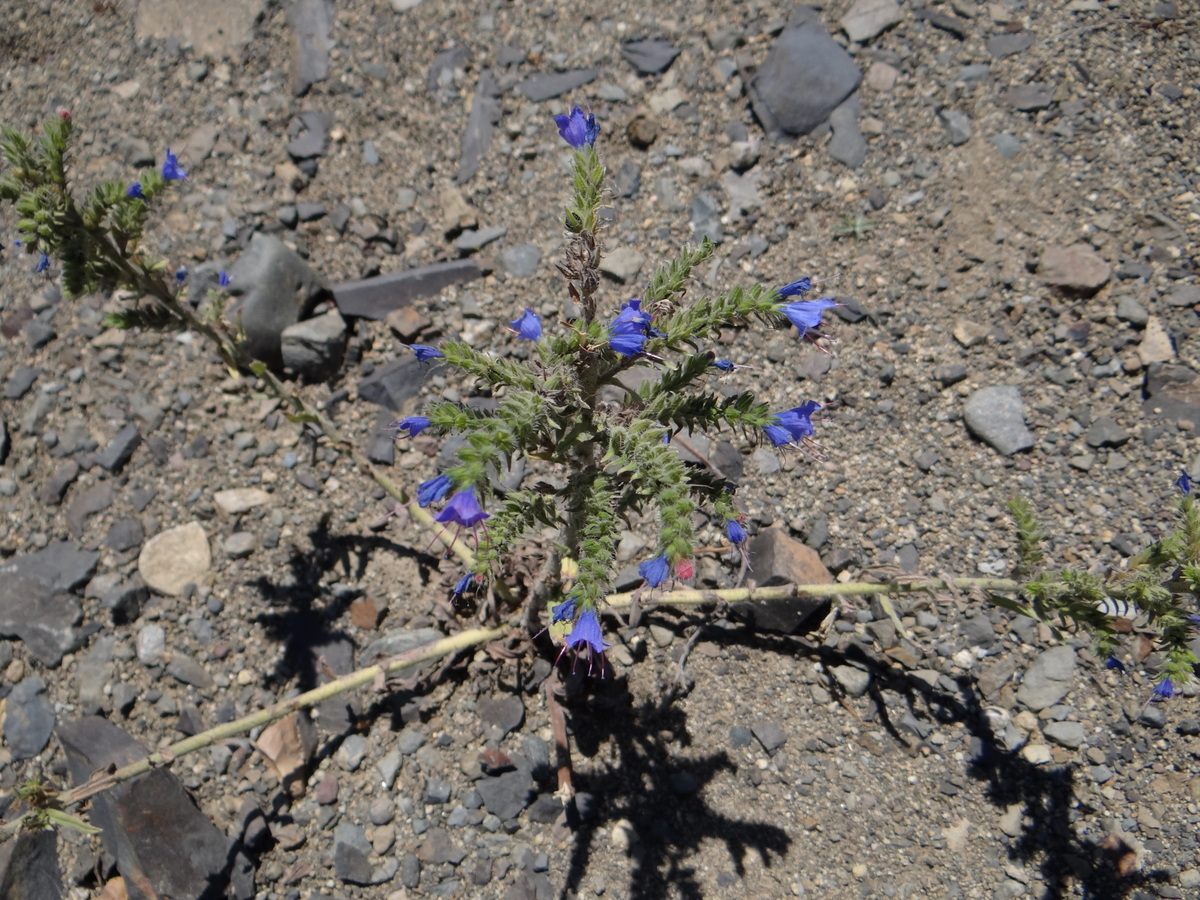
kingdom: Plantae
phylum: Tracheophyta
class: Magnoliopsida
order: Boraginales
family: Boraginaceae
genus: Echium
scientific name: Echium vulgare
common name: Common viper's bugloss
